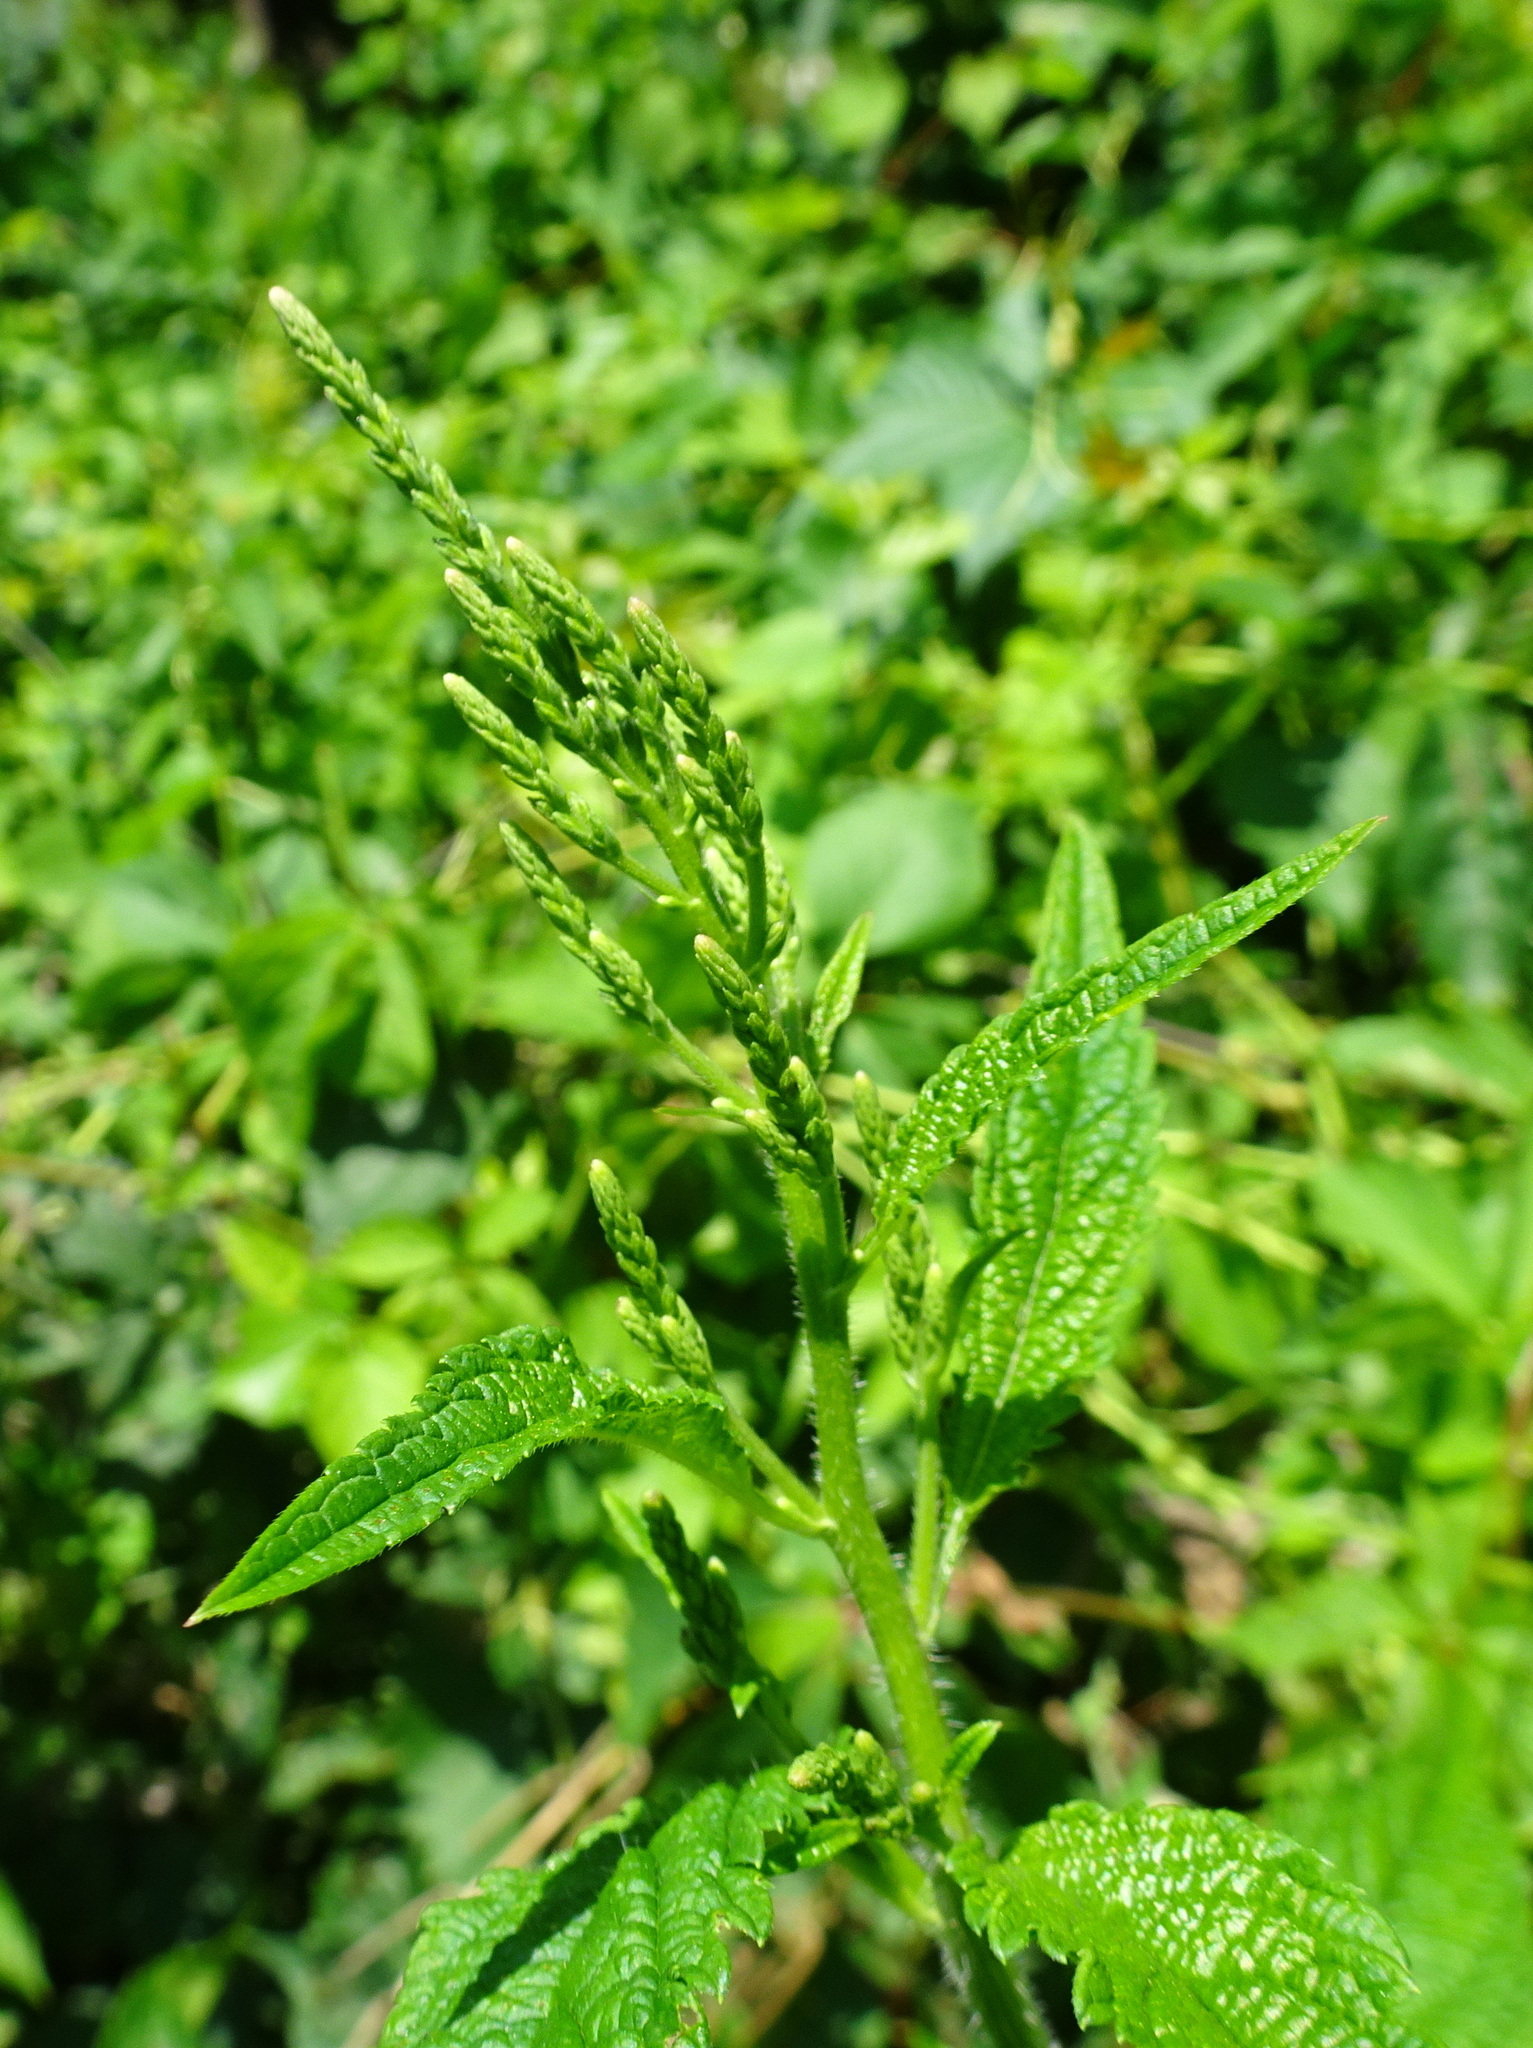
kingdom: Plantae
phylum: Tracheophyta
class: Magnoliopsida
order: Lamiales
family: Verbenaceae
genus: Verbena
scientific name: Verbena urticifolia
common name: Nettle-leaved vervain
